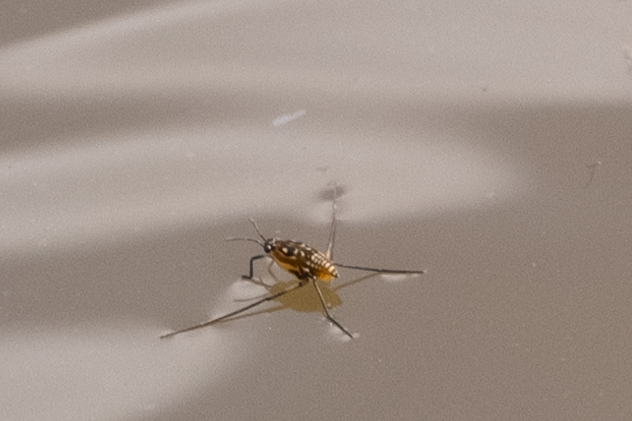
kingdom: Animalia
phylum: Arthropoda
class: Insecta
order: Hemiptera
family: Gerridae
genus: Trepobates
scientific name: Trepobates
